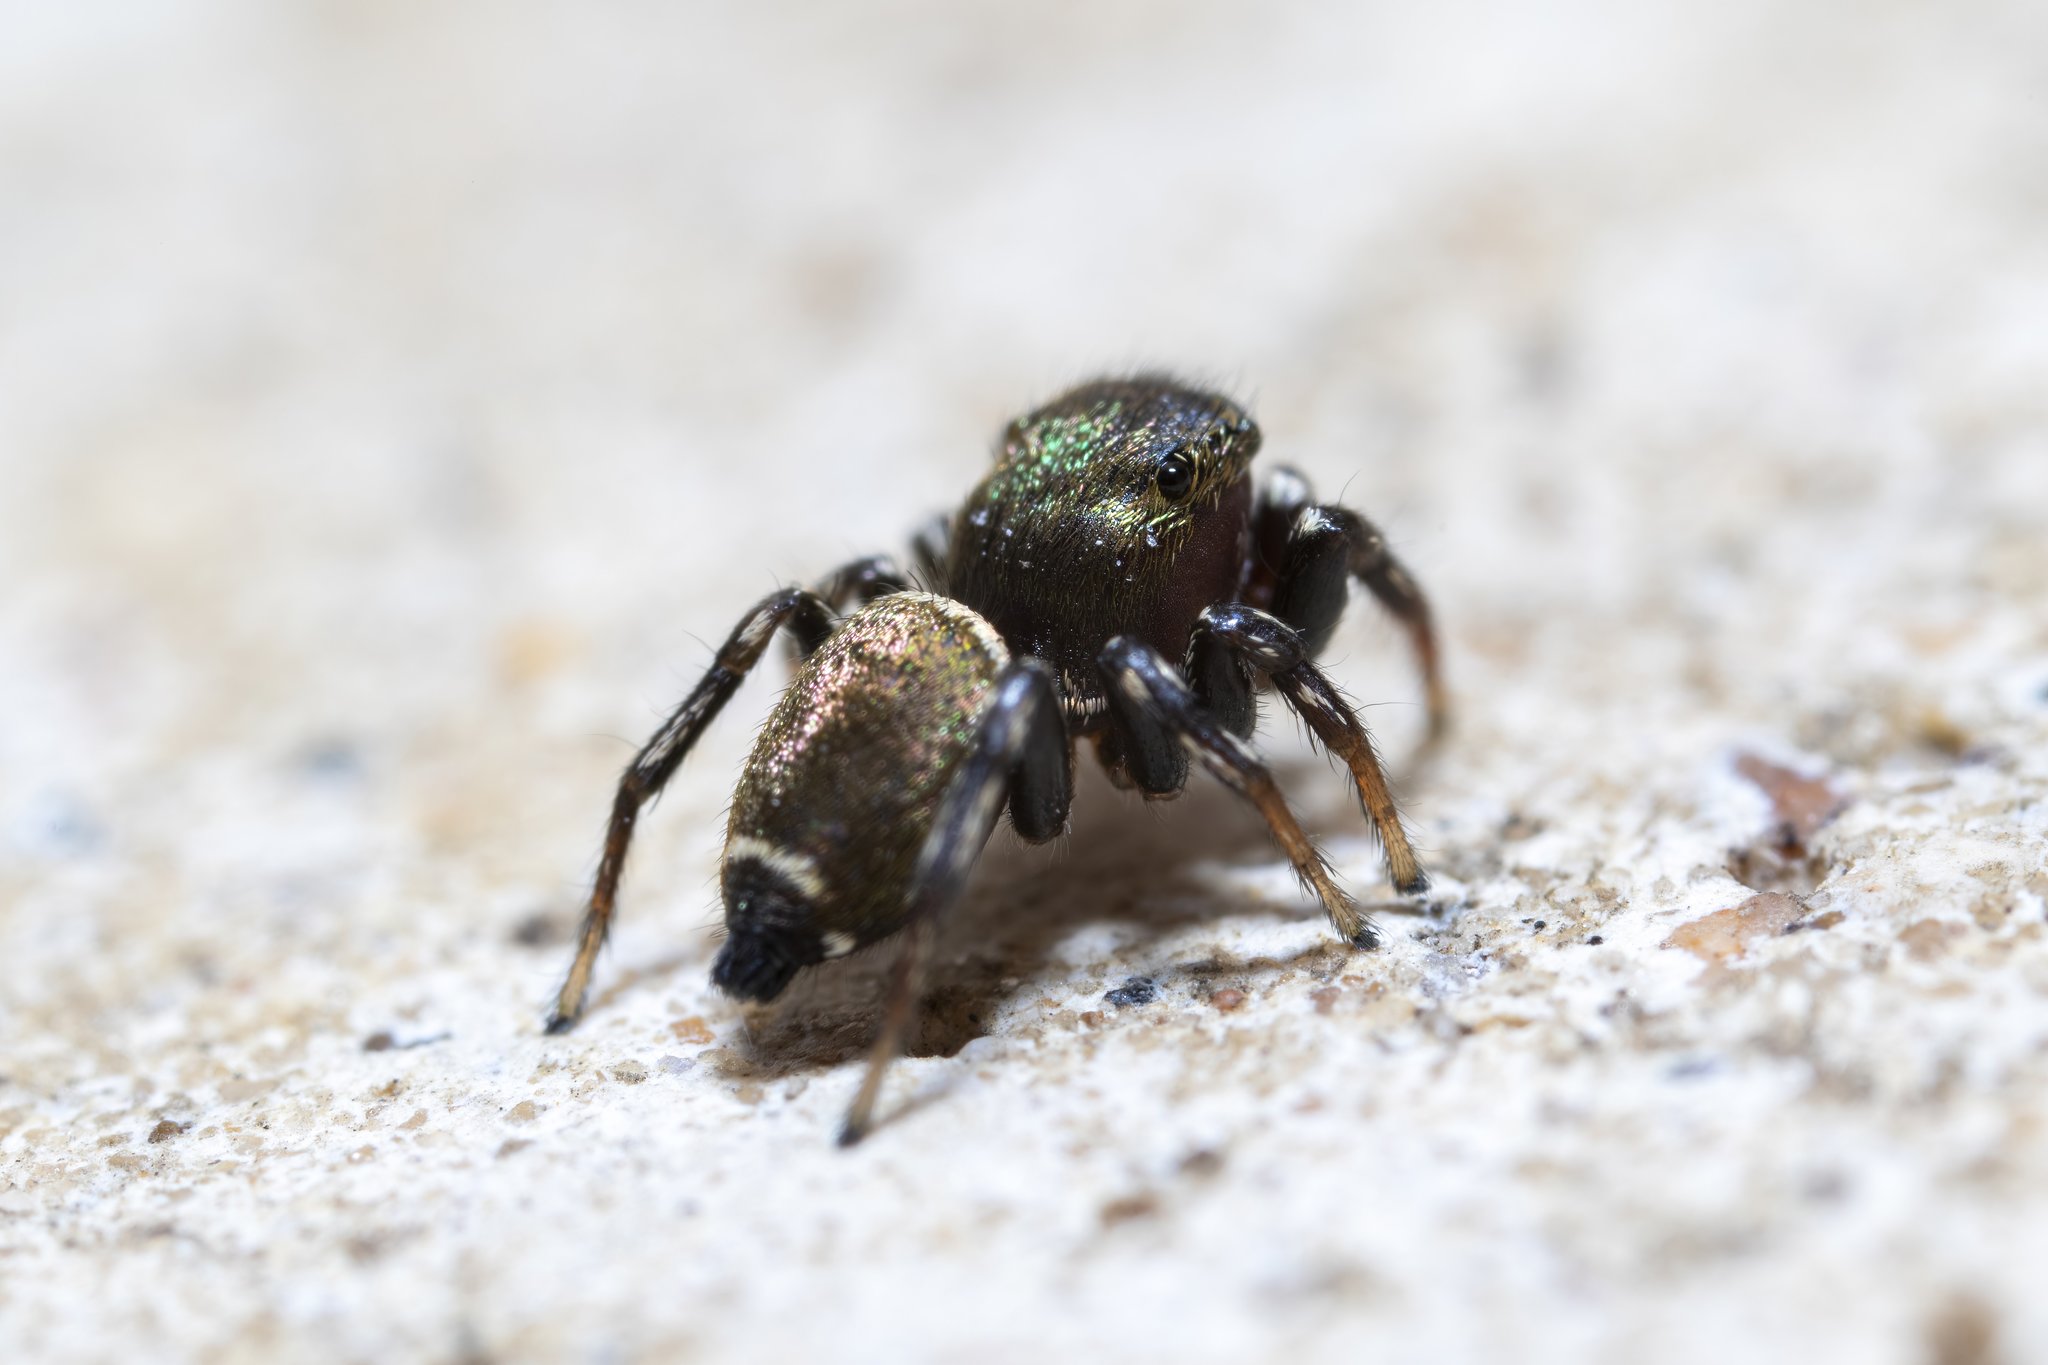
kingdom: Animalia
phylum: Arthropoda
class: Arachnida
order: Araneae
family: Salticidae
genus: Heliophanus
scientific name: Heliophanus tribulosus
